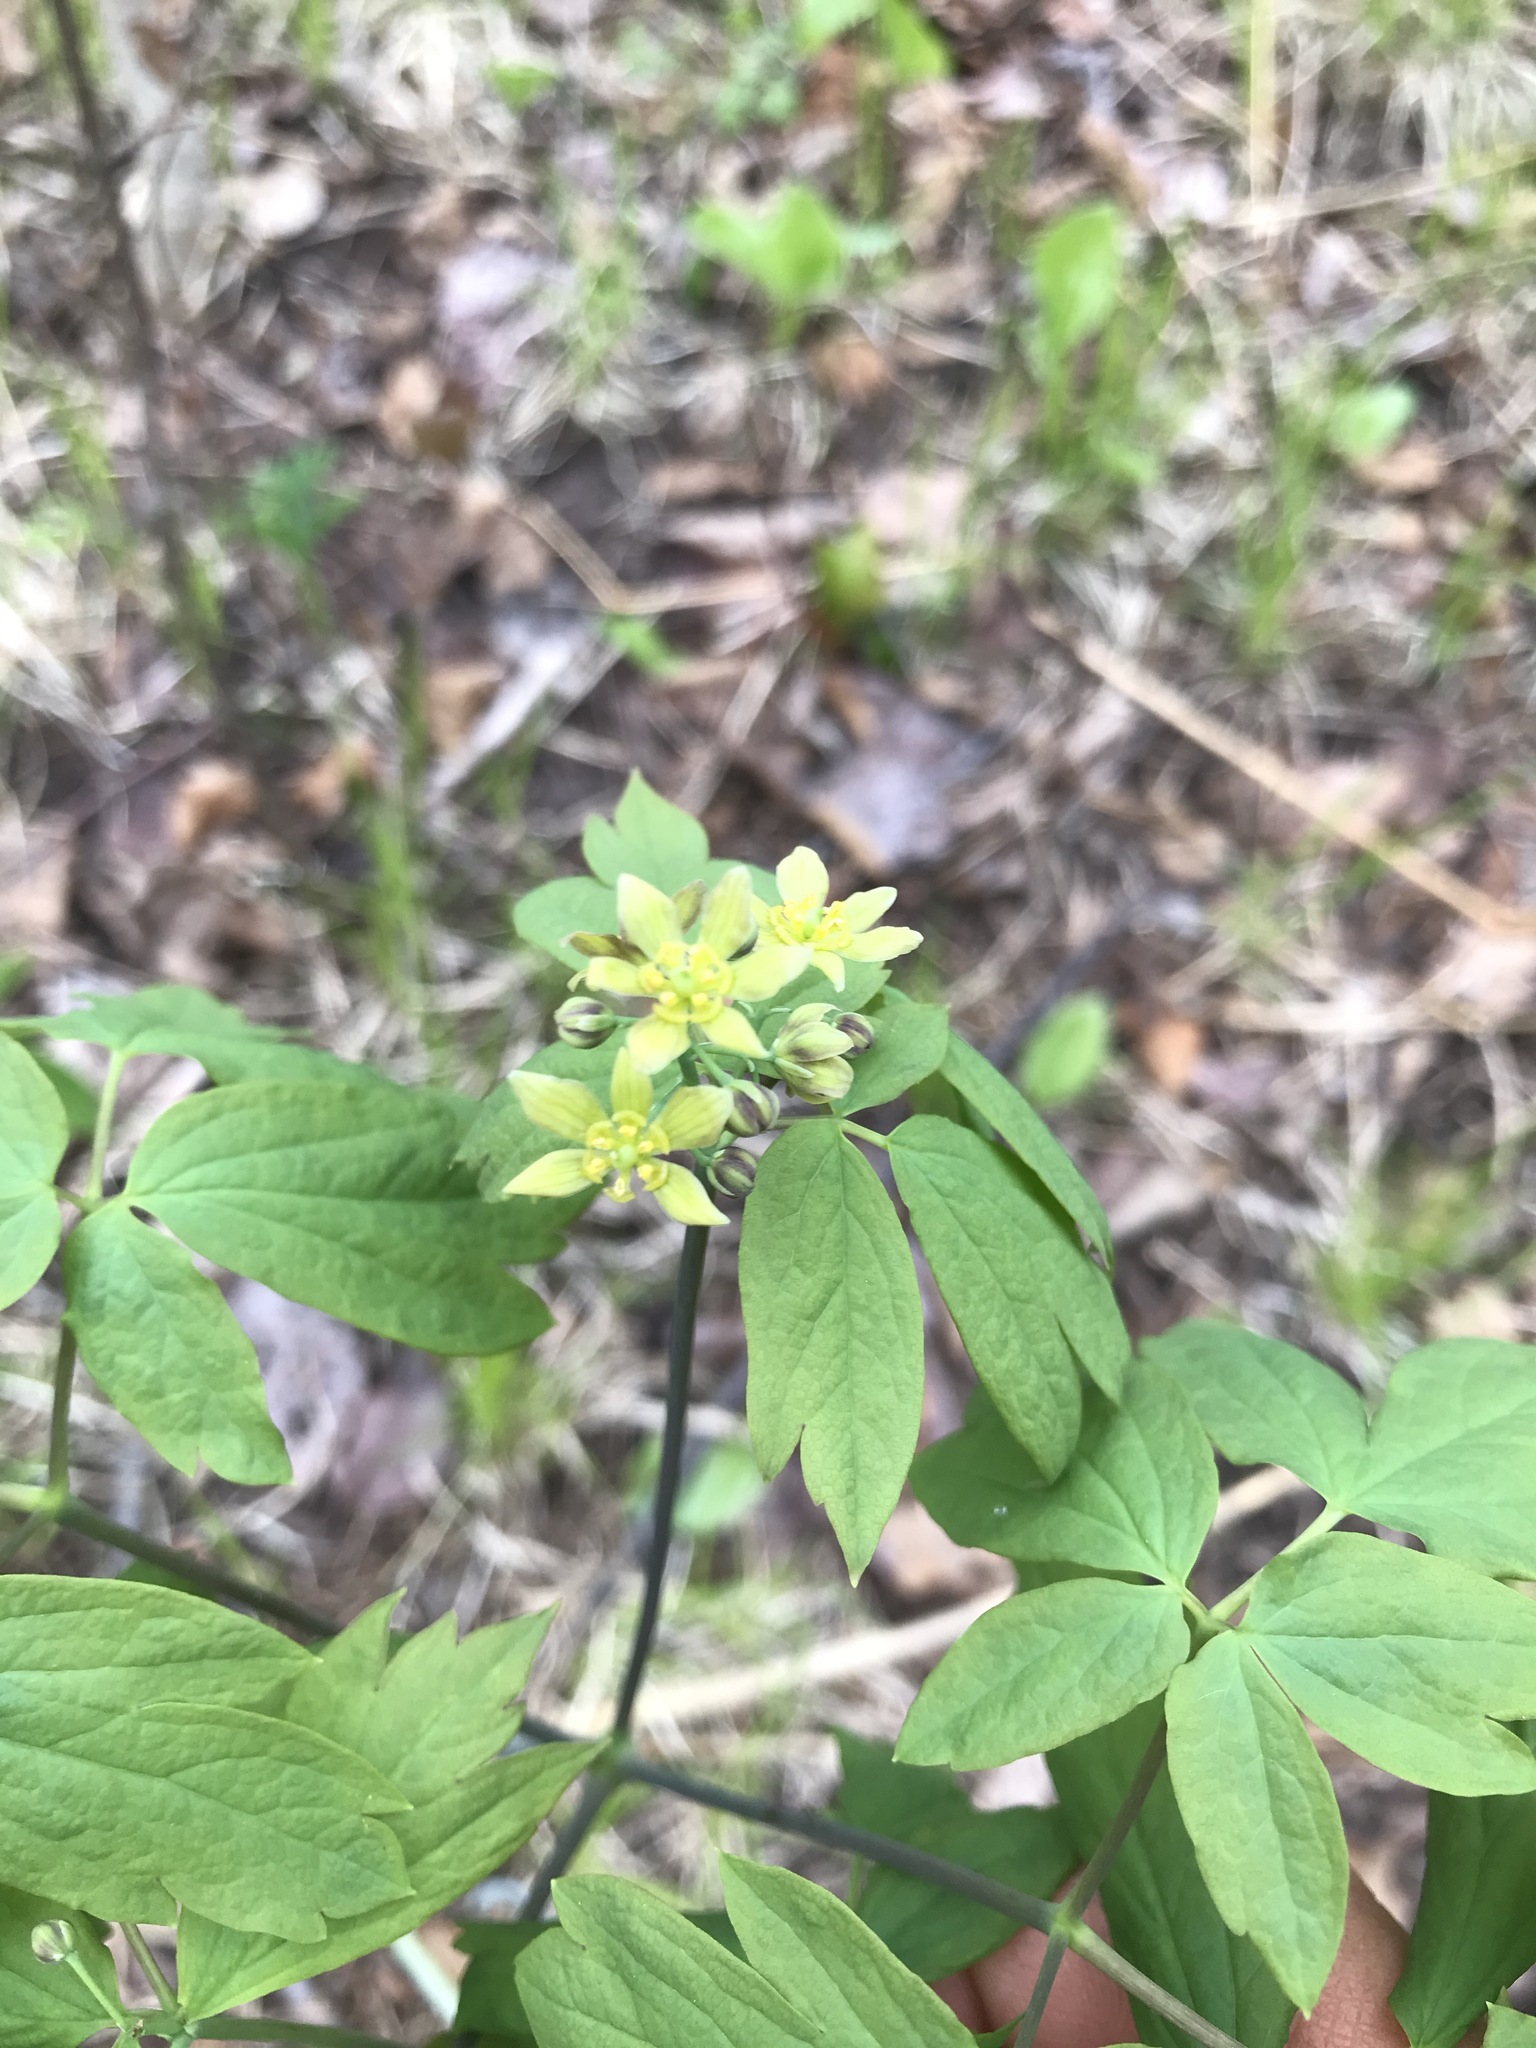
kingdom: Plantae
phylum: Tracheophyta
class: Magnoliopsida
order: Ranunculales
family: Berberidaceae
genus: Caulophyllum
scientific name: Caulophyllum thalictroides
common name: Blue cohosh
